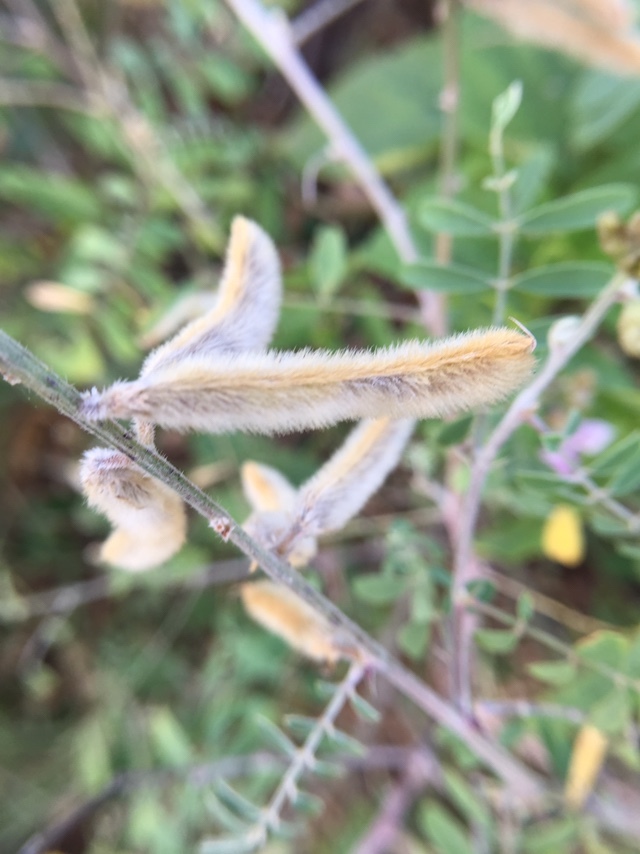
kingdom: Plantae
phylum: Tracheophyta
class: Magnoliopsida
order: Fabales
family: Fabaceae
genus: Tephrosia
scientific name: Tephrosia villosa
